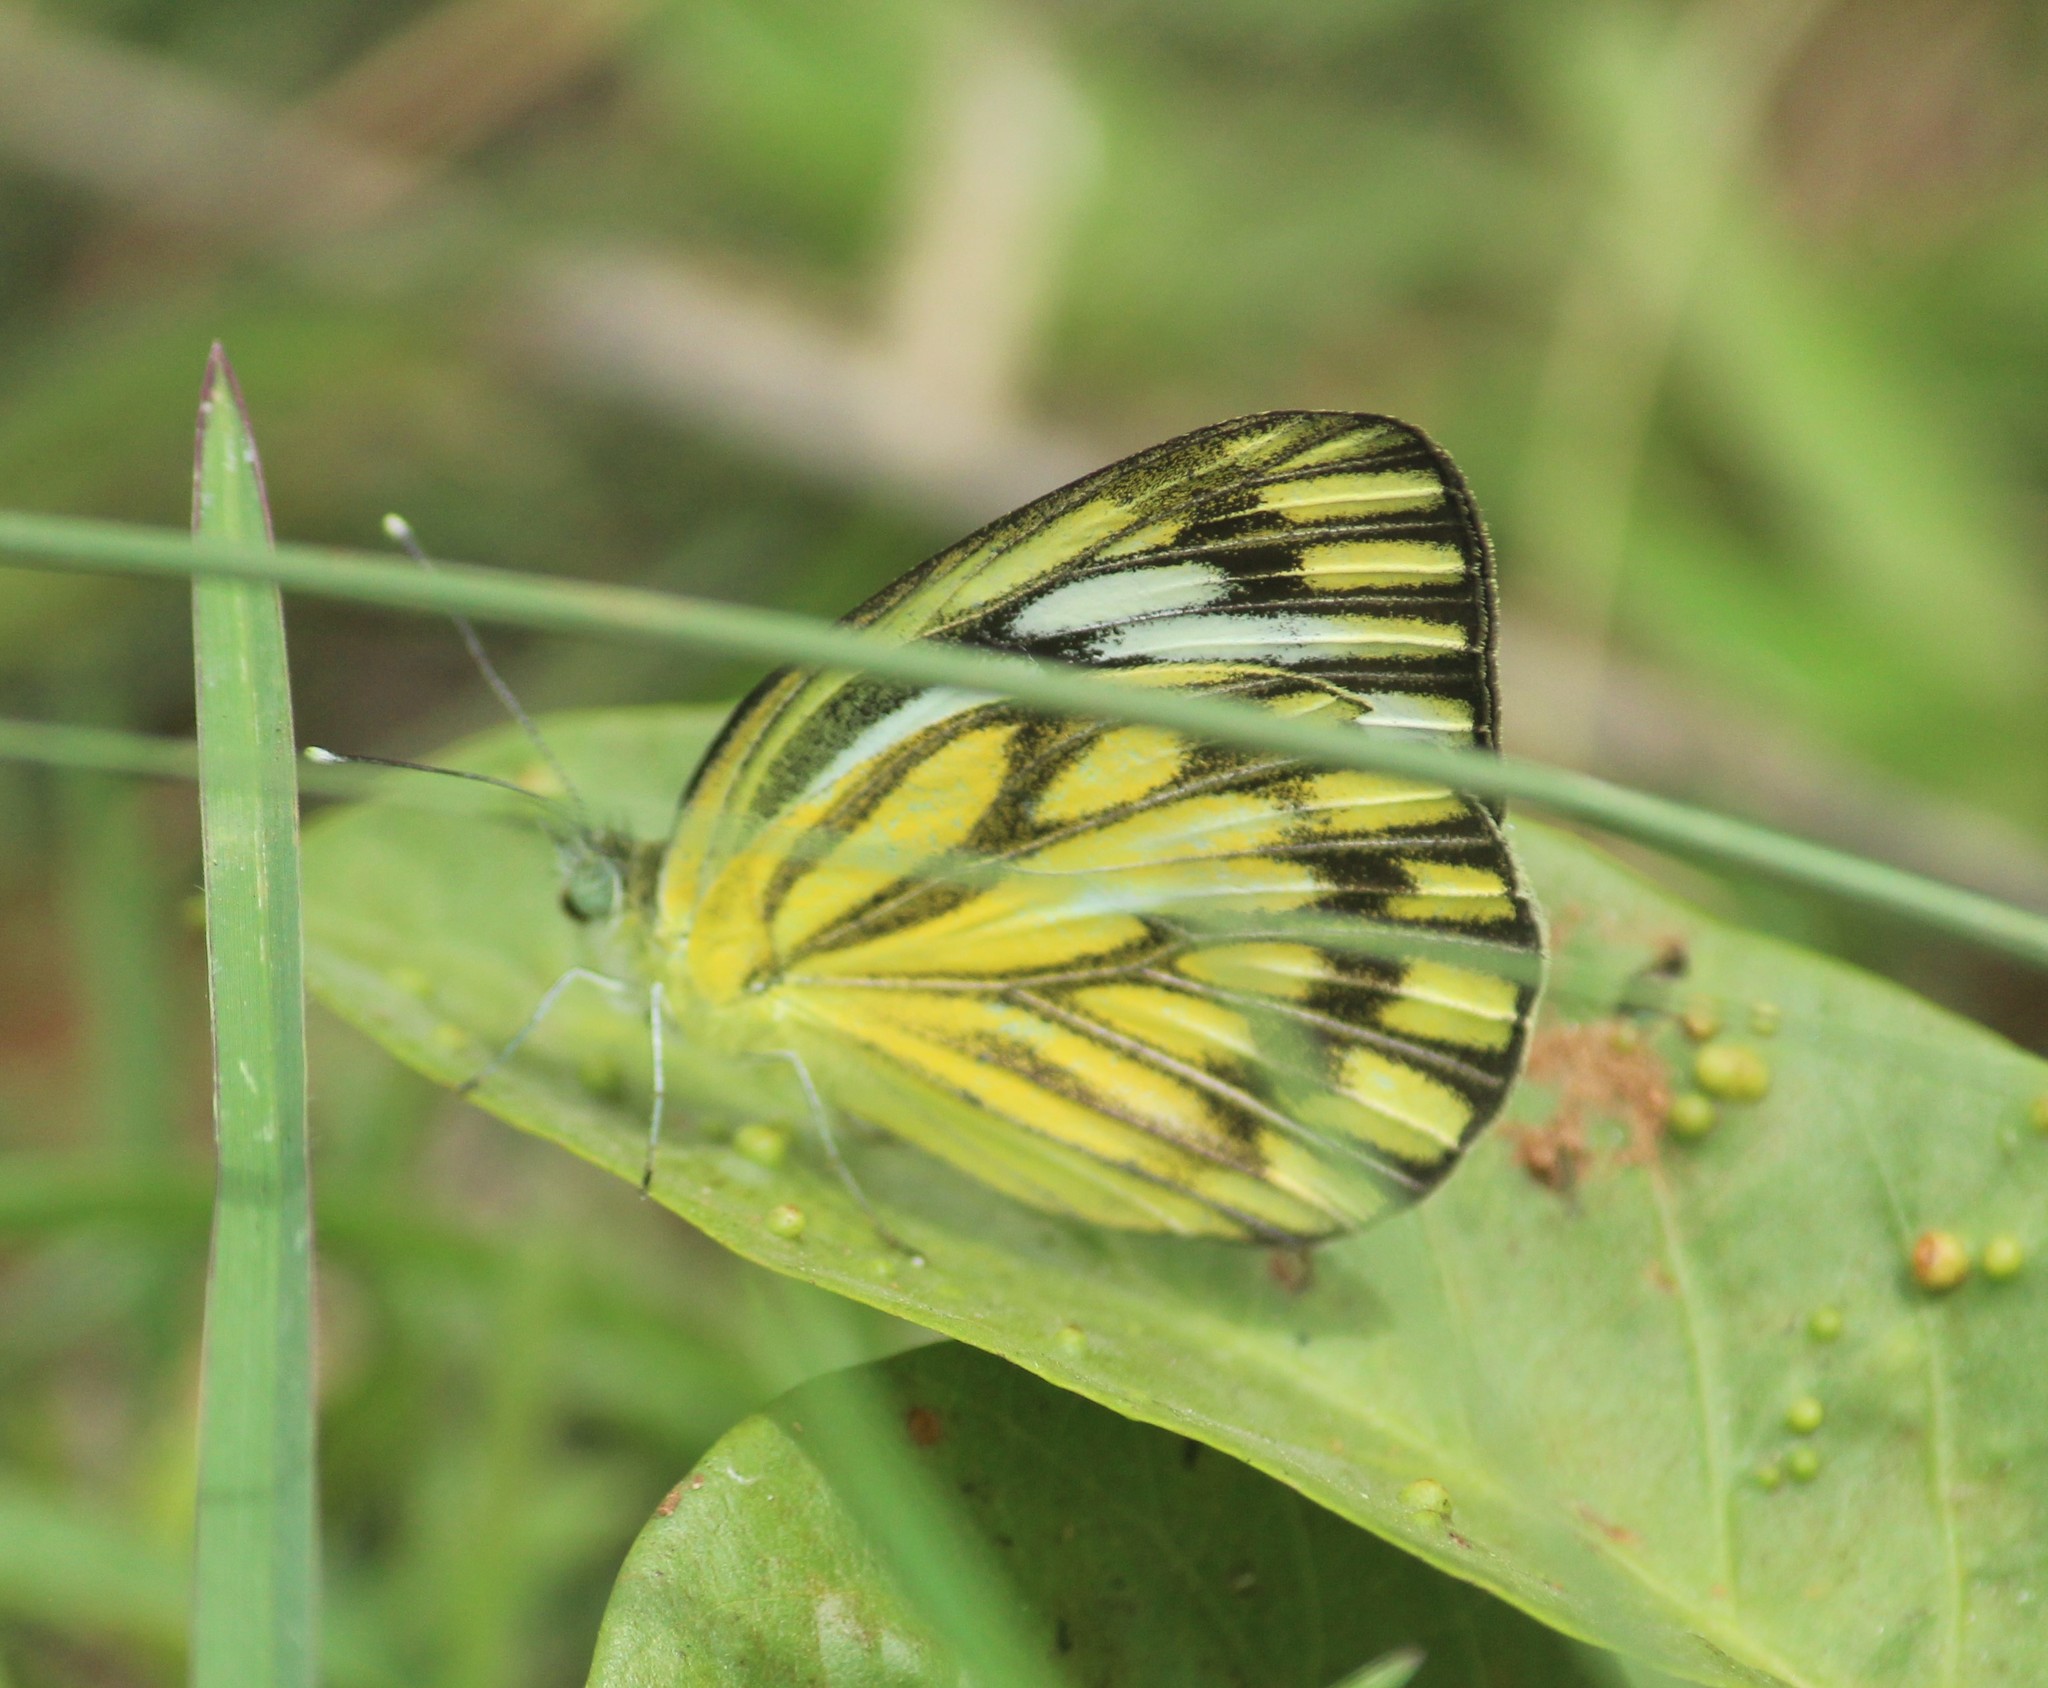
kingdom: Animalia
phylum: Arthropoda
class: Insecta
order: Lepidoptera
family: Pieridae
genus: Cepora
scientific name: Cepora nerissa
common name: Common gull
